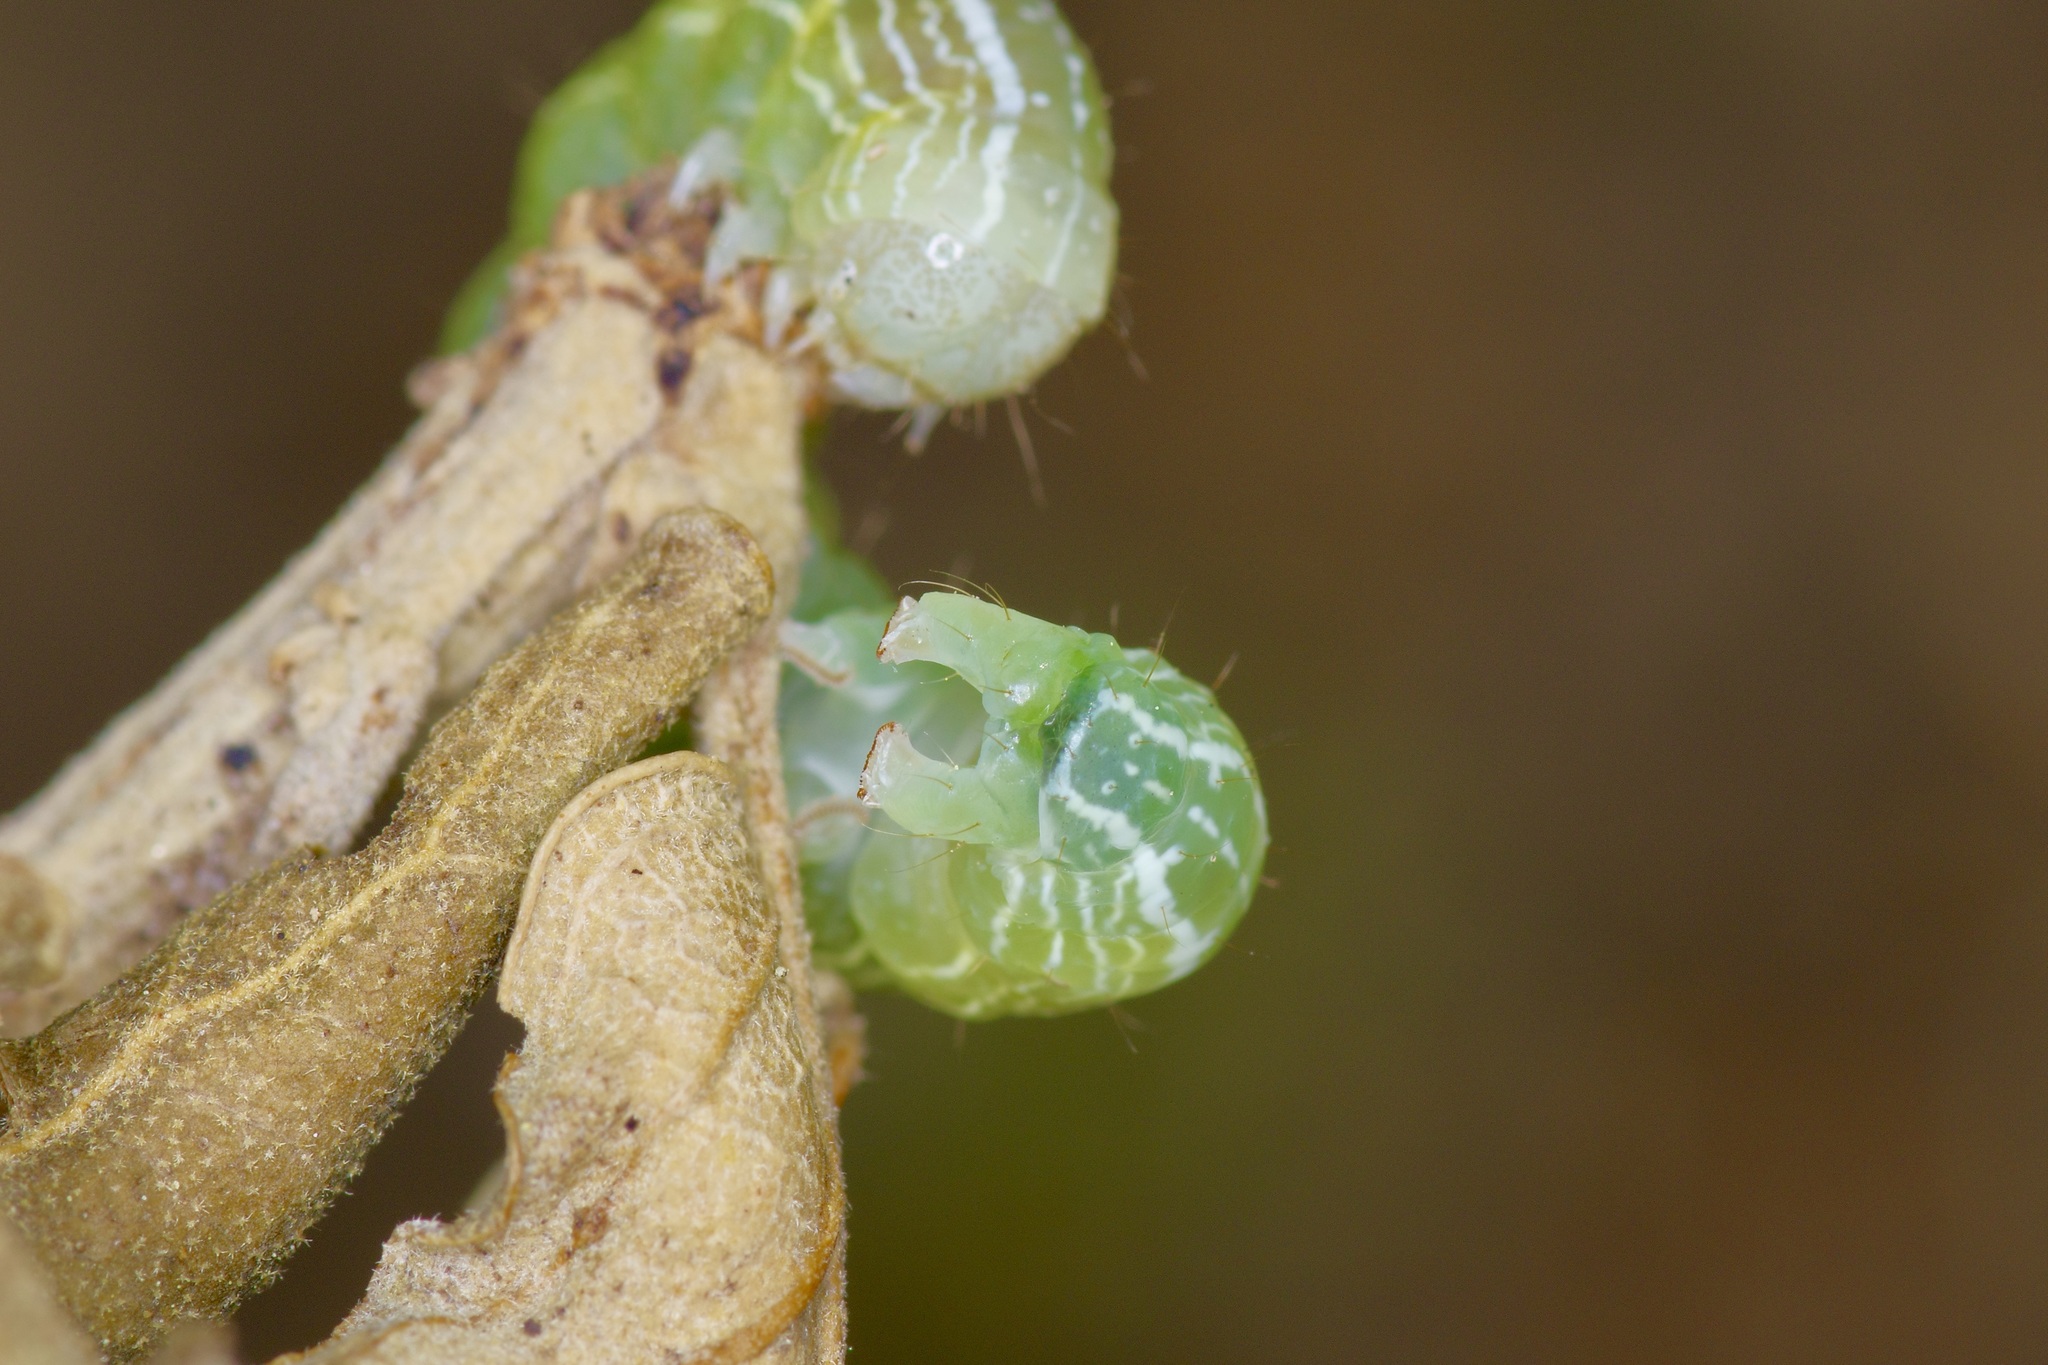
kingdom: Animalia
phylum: Arthropoda
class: Insecta
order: Lepidoptera
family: Noctuidae
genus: Kocakina
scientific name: Kocakina fidelis
